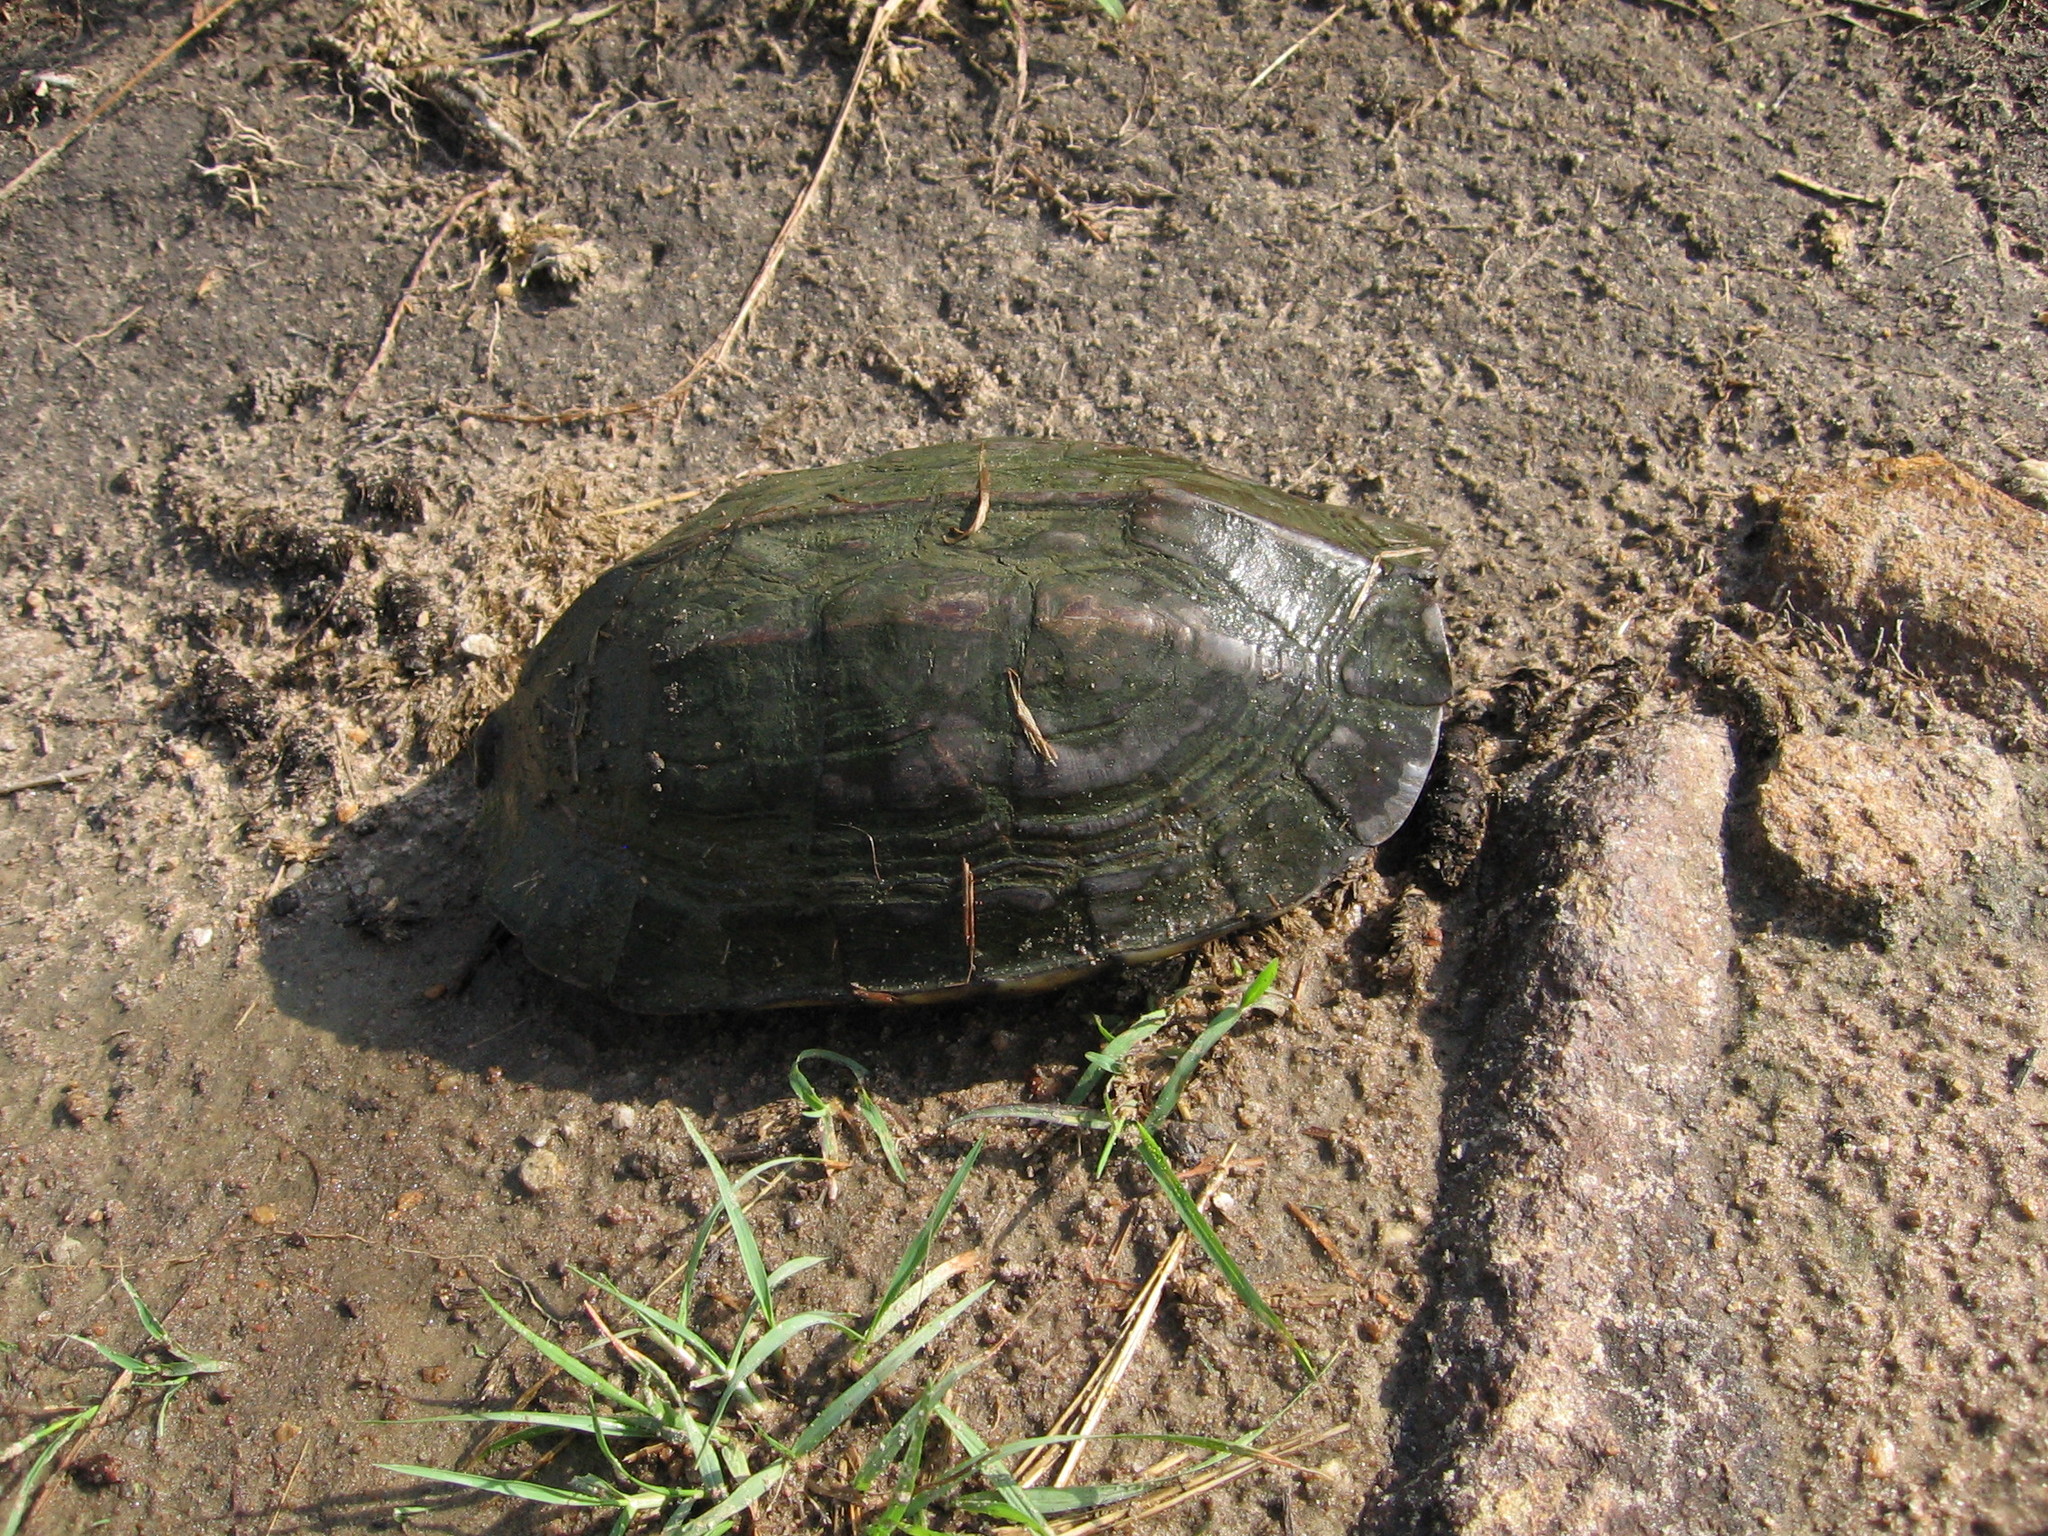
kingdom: Animalia
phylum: Chordata
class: Testudines
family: Geoemydidae
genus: Melanochelys
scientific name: Melanochelys trijuga
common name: Indian black turtle
